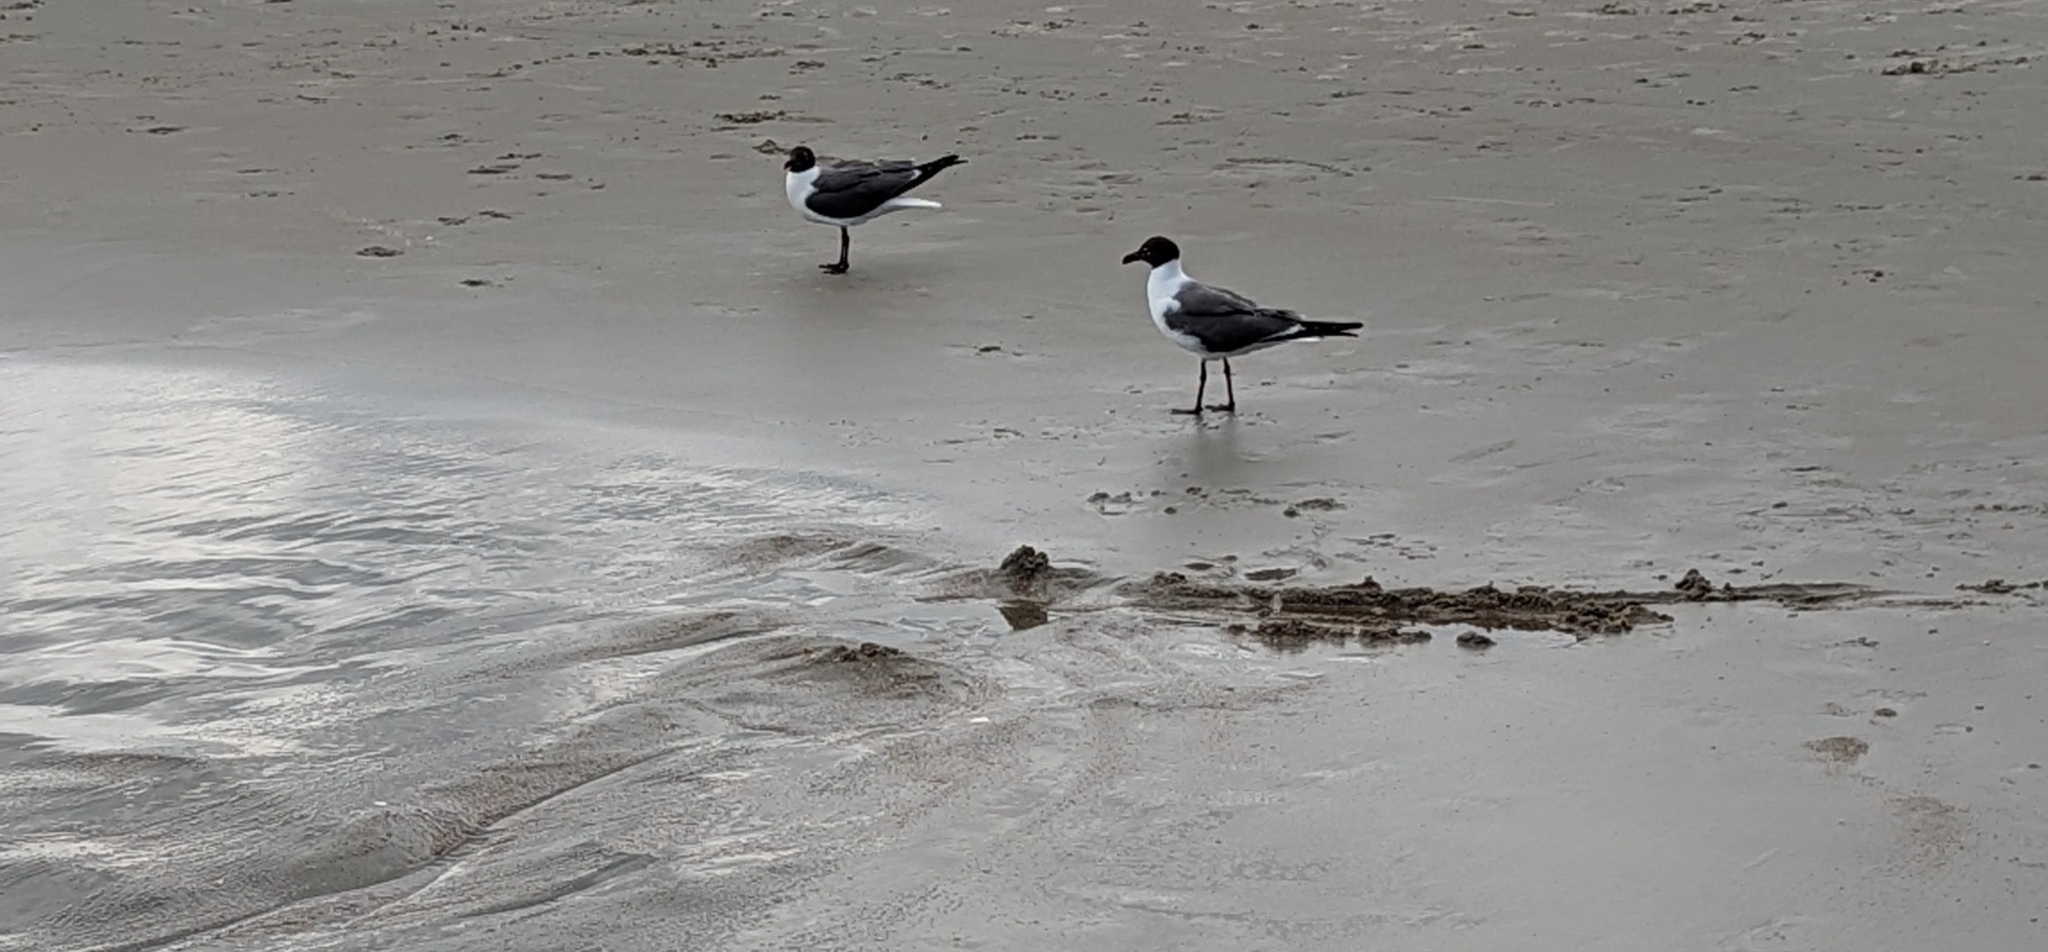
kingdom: Animalia
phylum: Chordata
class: Aves
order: Charadriiformes
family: Laridae
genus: Leucophaeus
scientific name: Leucophaeus atricilla
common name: Laughing gull
